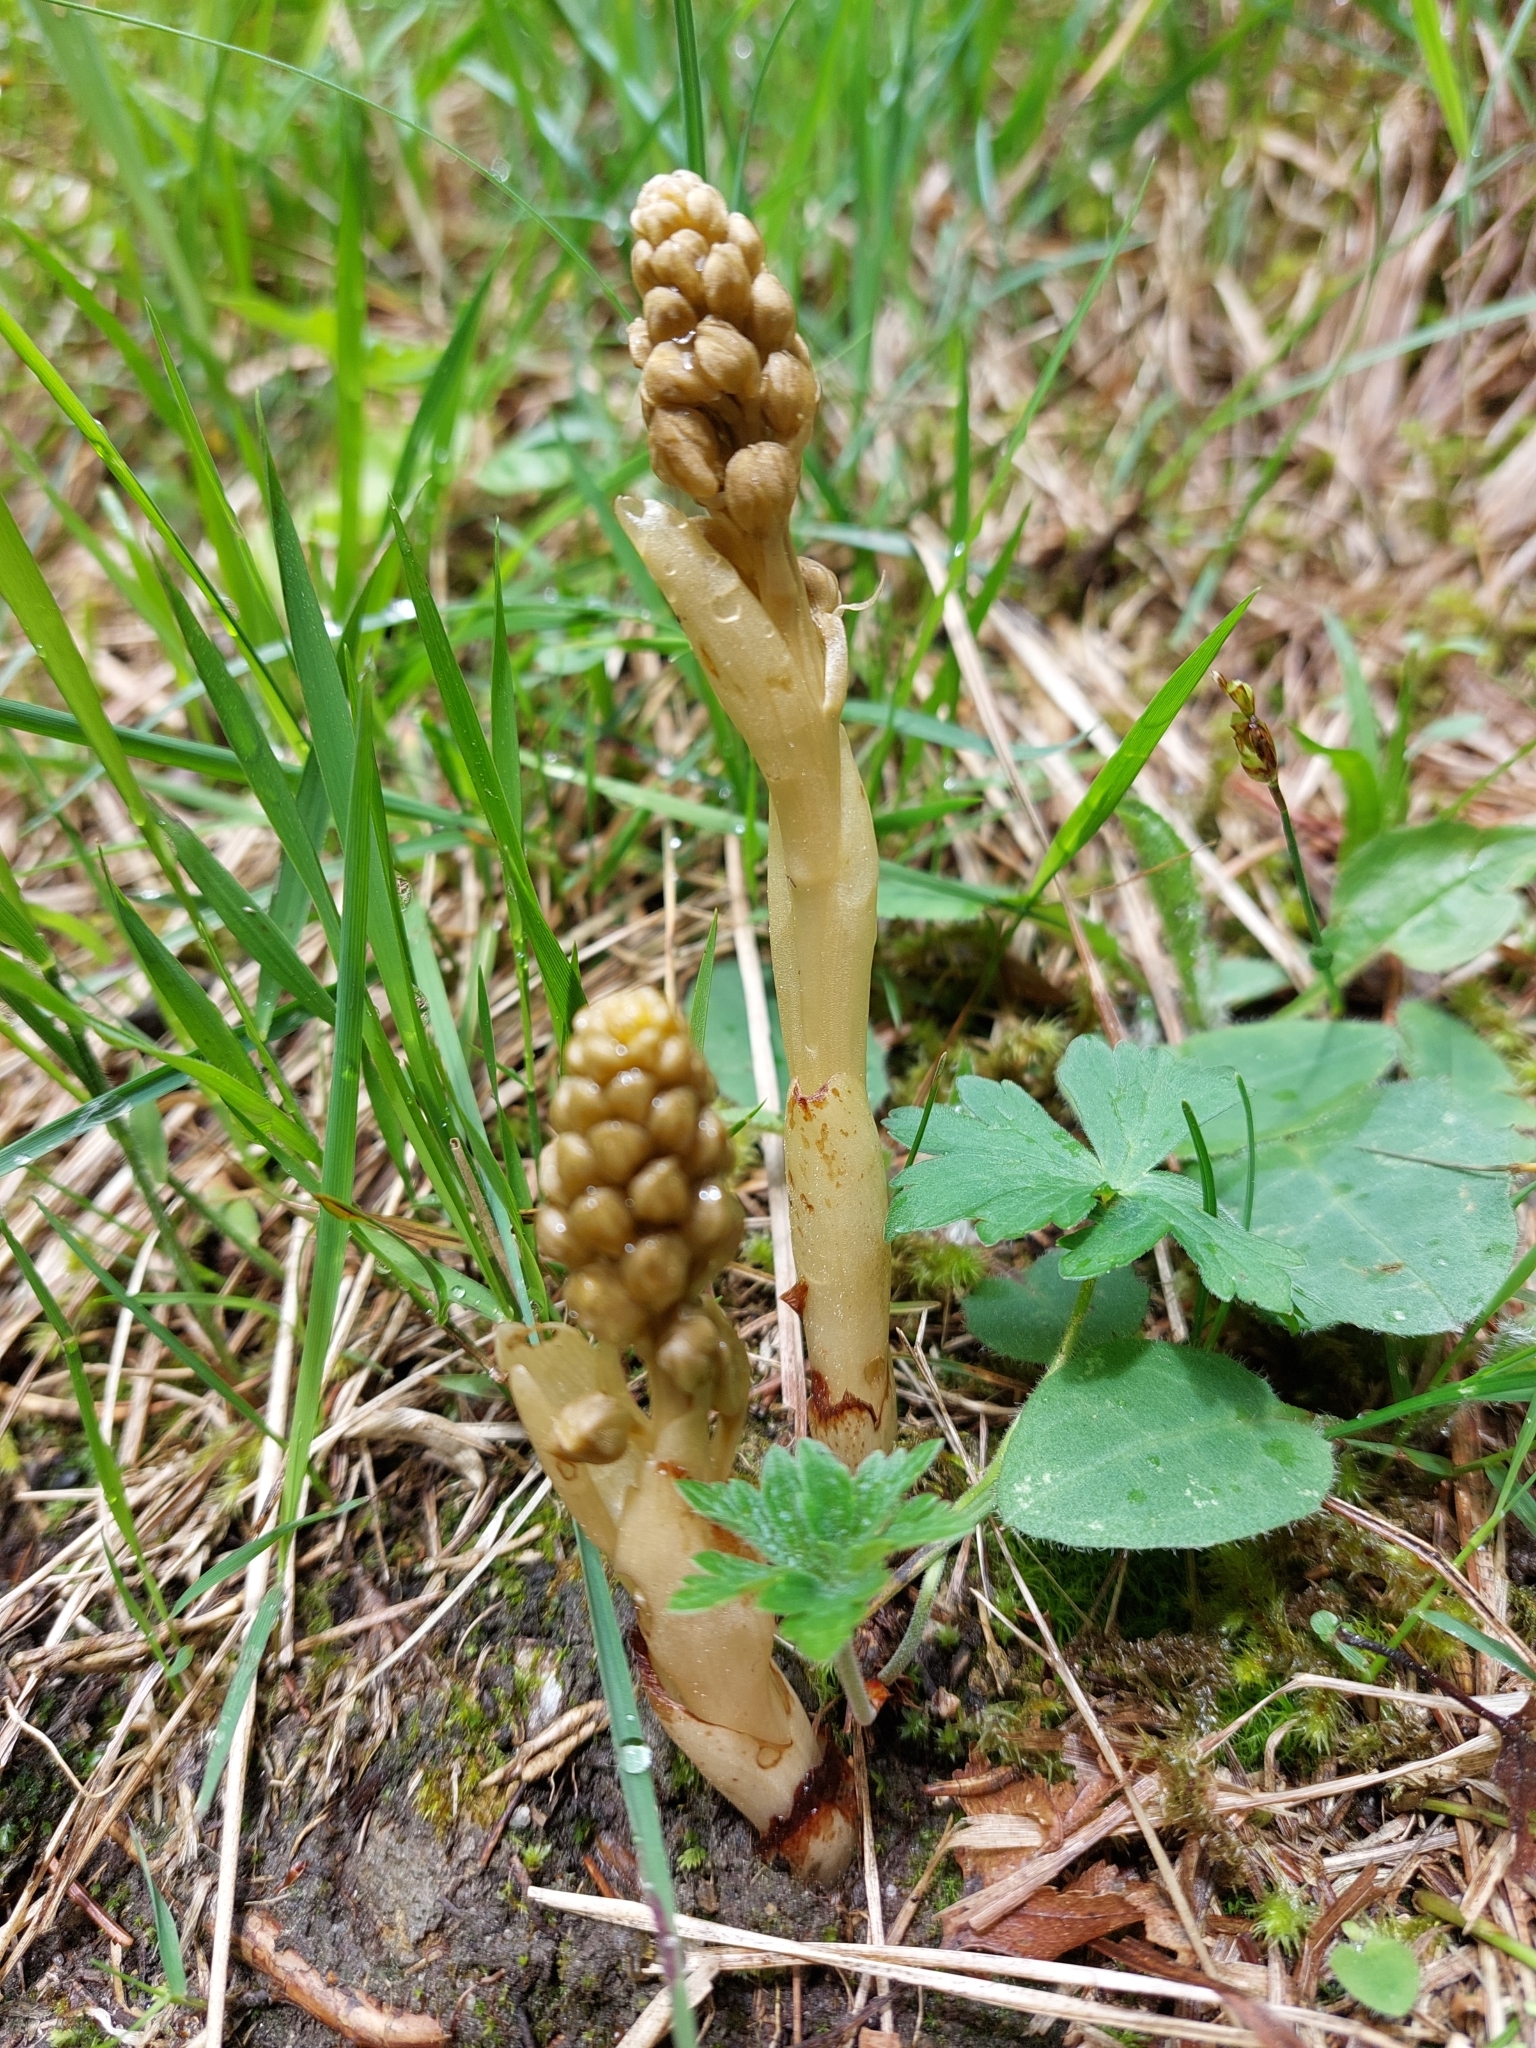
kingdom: Plantae
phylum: Tracheophyta
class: Liliopsida
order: Asparagales
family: Orchidaceae
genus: Neottia
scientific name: Neottia nidus-avis
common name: Bird's-nest orchid
